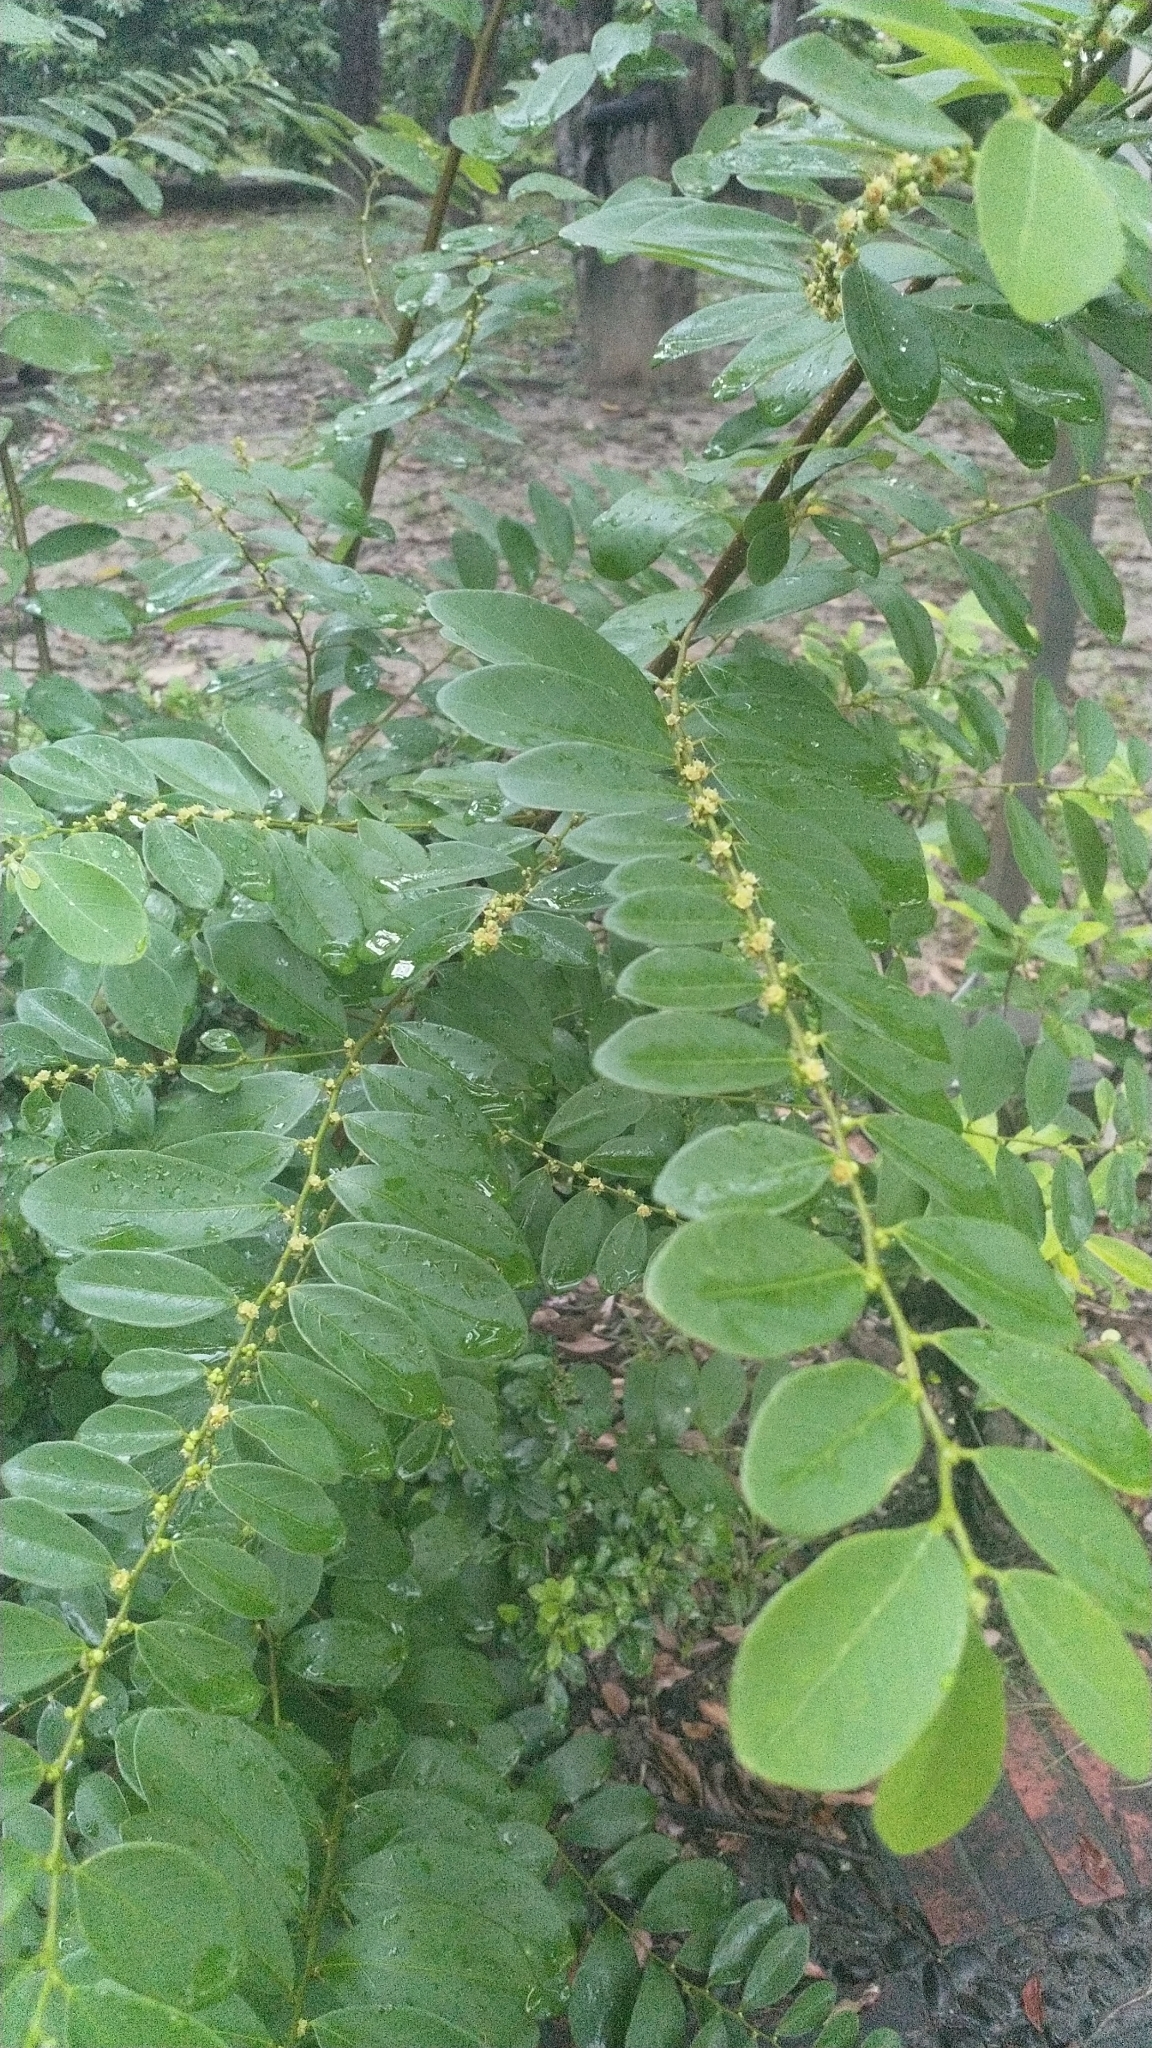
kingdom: Plantae
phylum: Tracheophyta
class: Magnoliopsida
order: Malpighiales
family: Phyllanthaceae
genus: Bridelia
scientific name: Bridelia tomentosa
